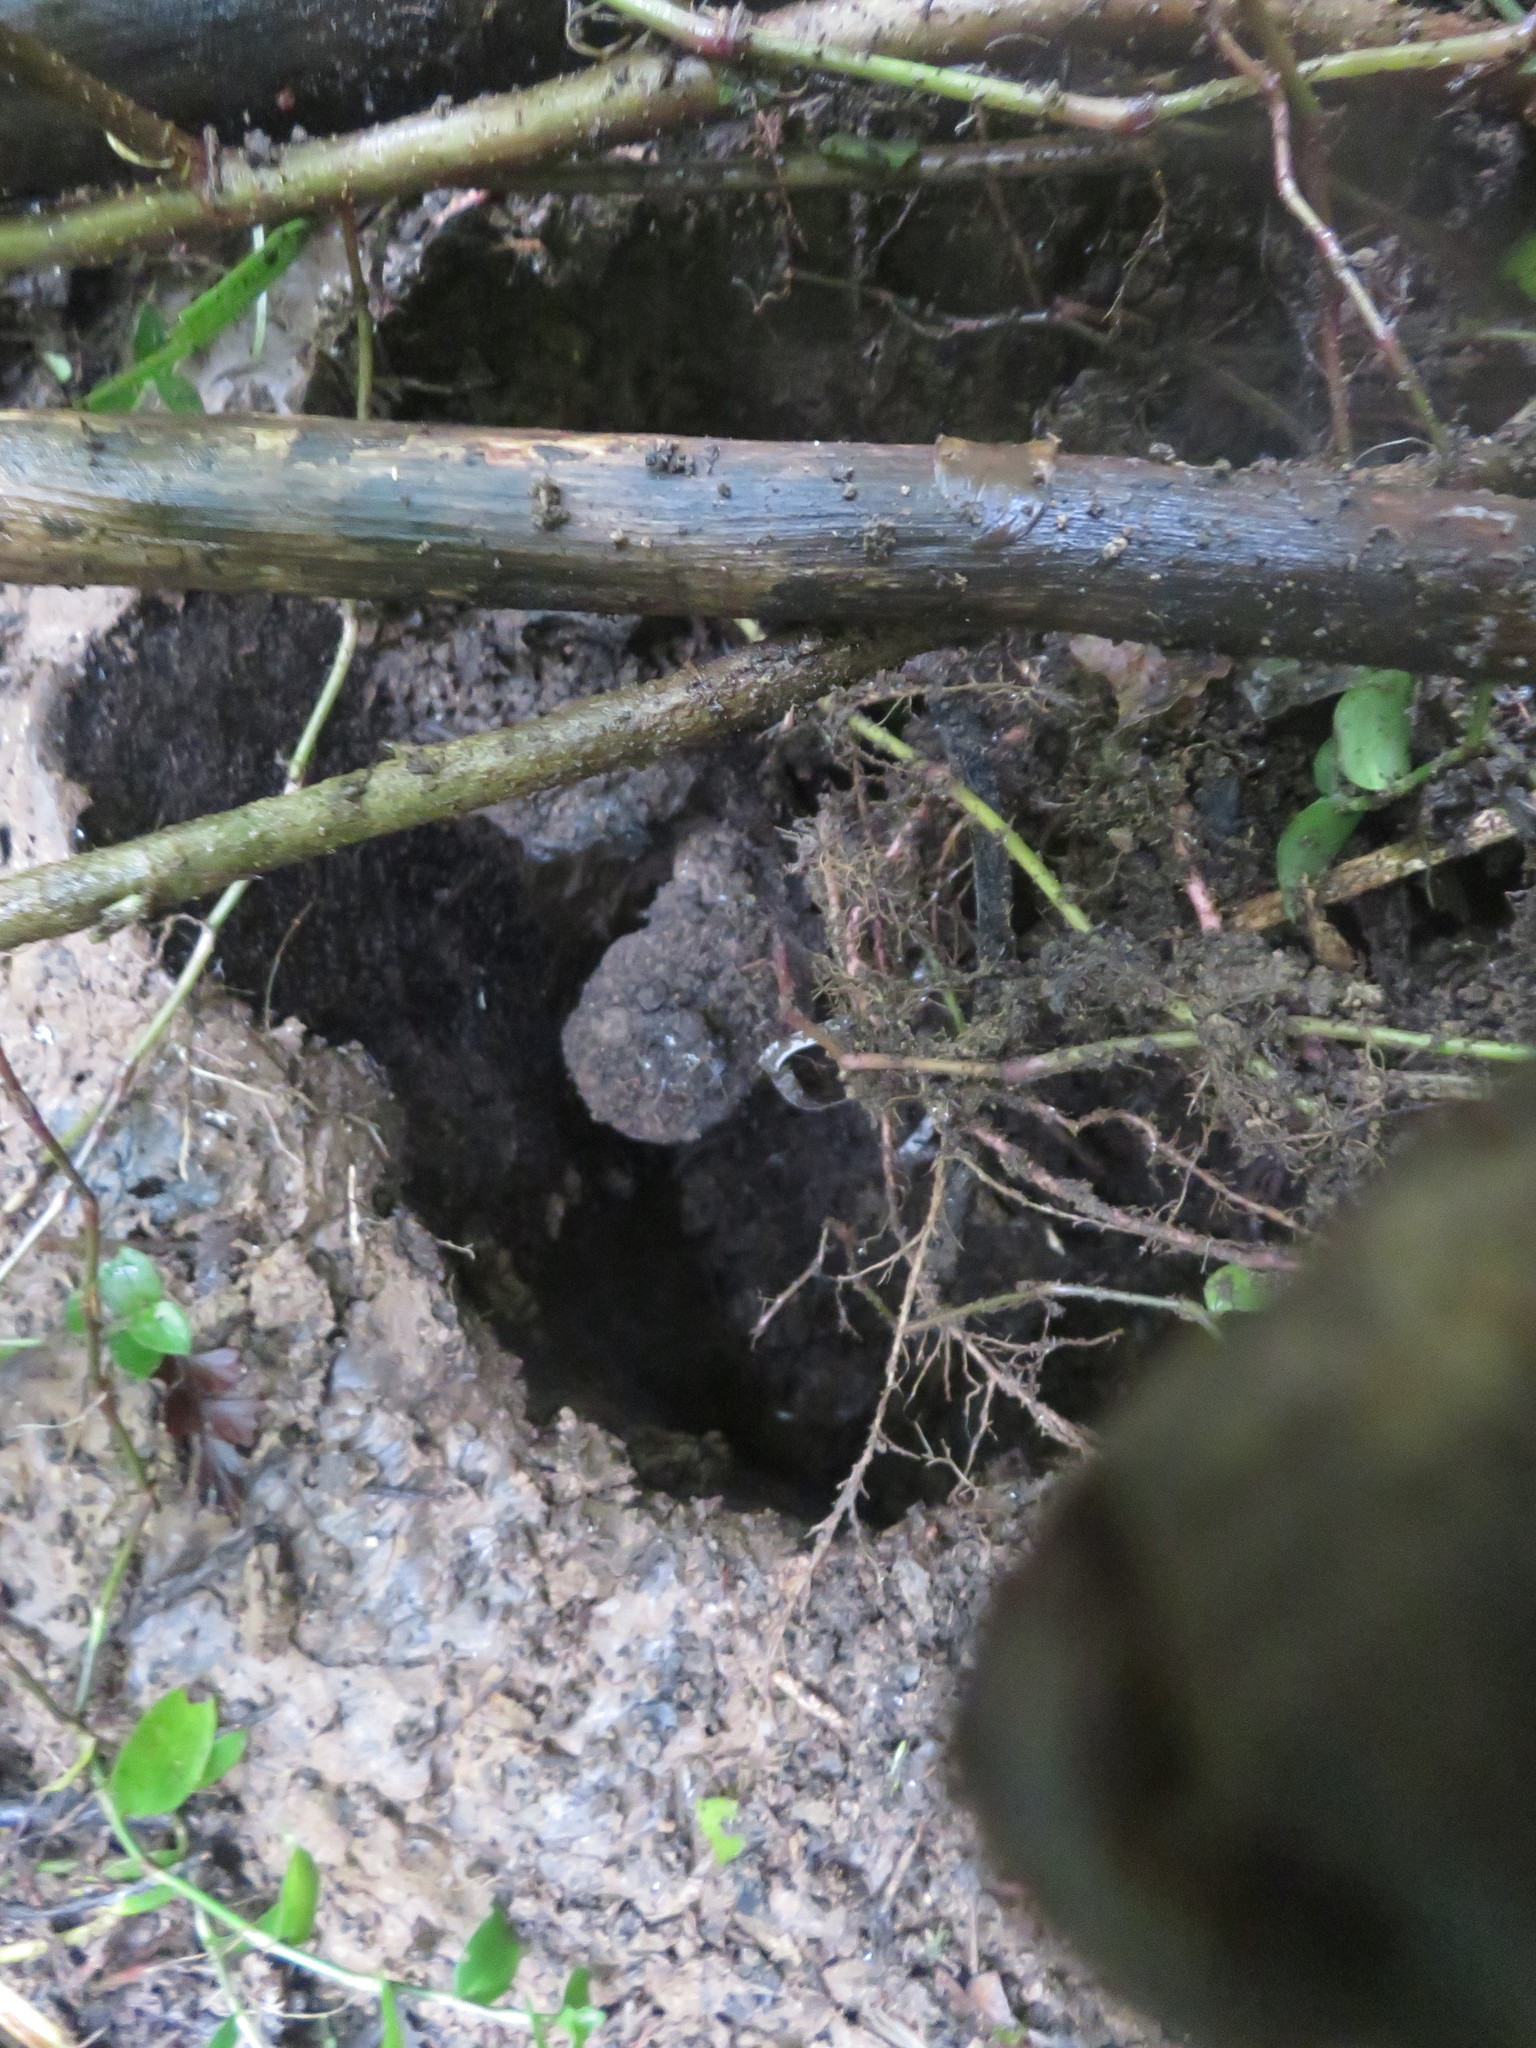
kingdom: Plantae
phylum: Tracheophyta
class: Magnoliopsida
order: Apiales
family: Araliaceae
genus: Schefflera
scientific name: Schefflera digitata
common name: Pate
